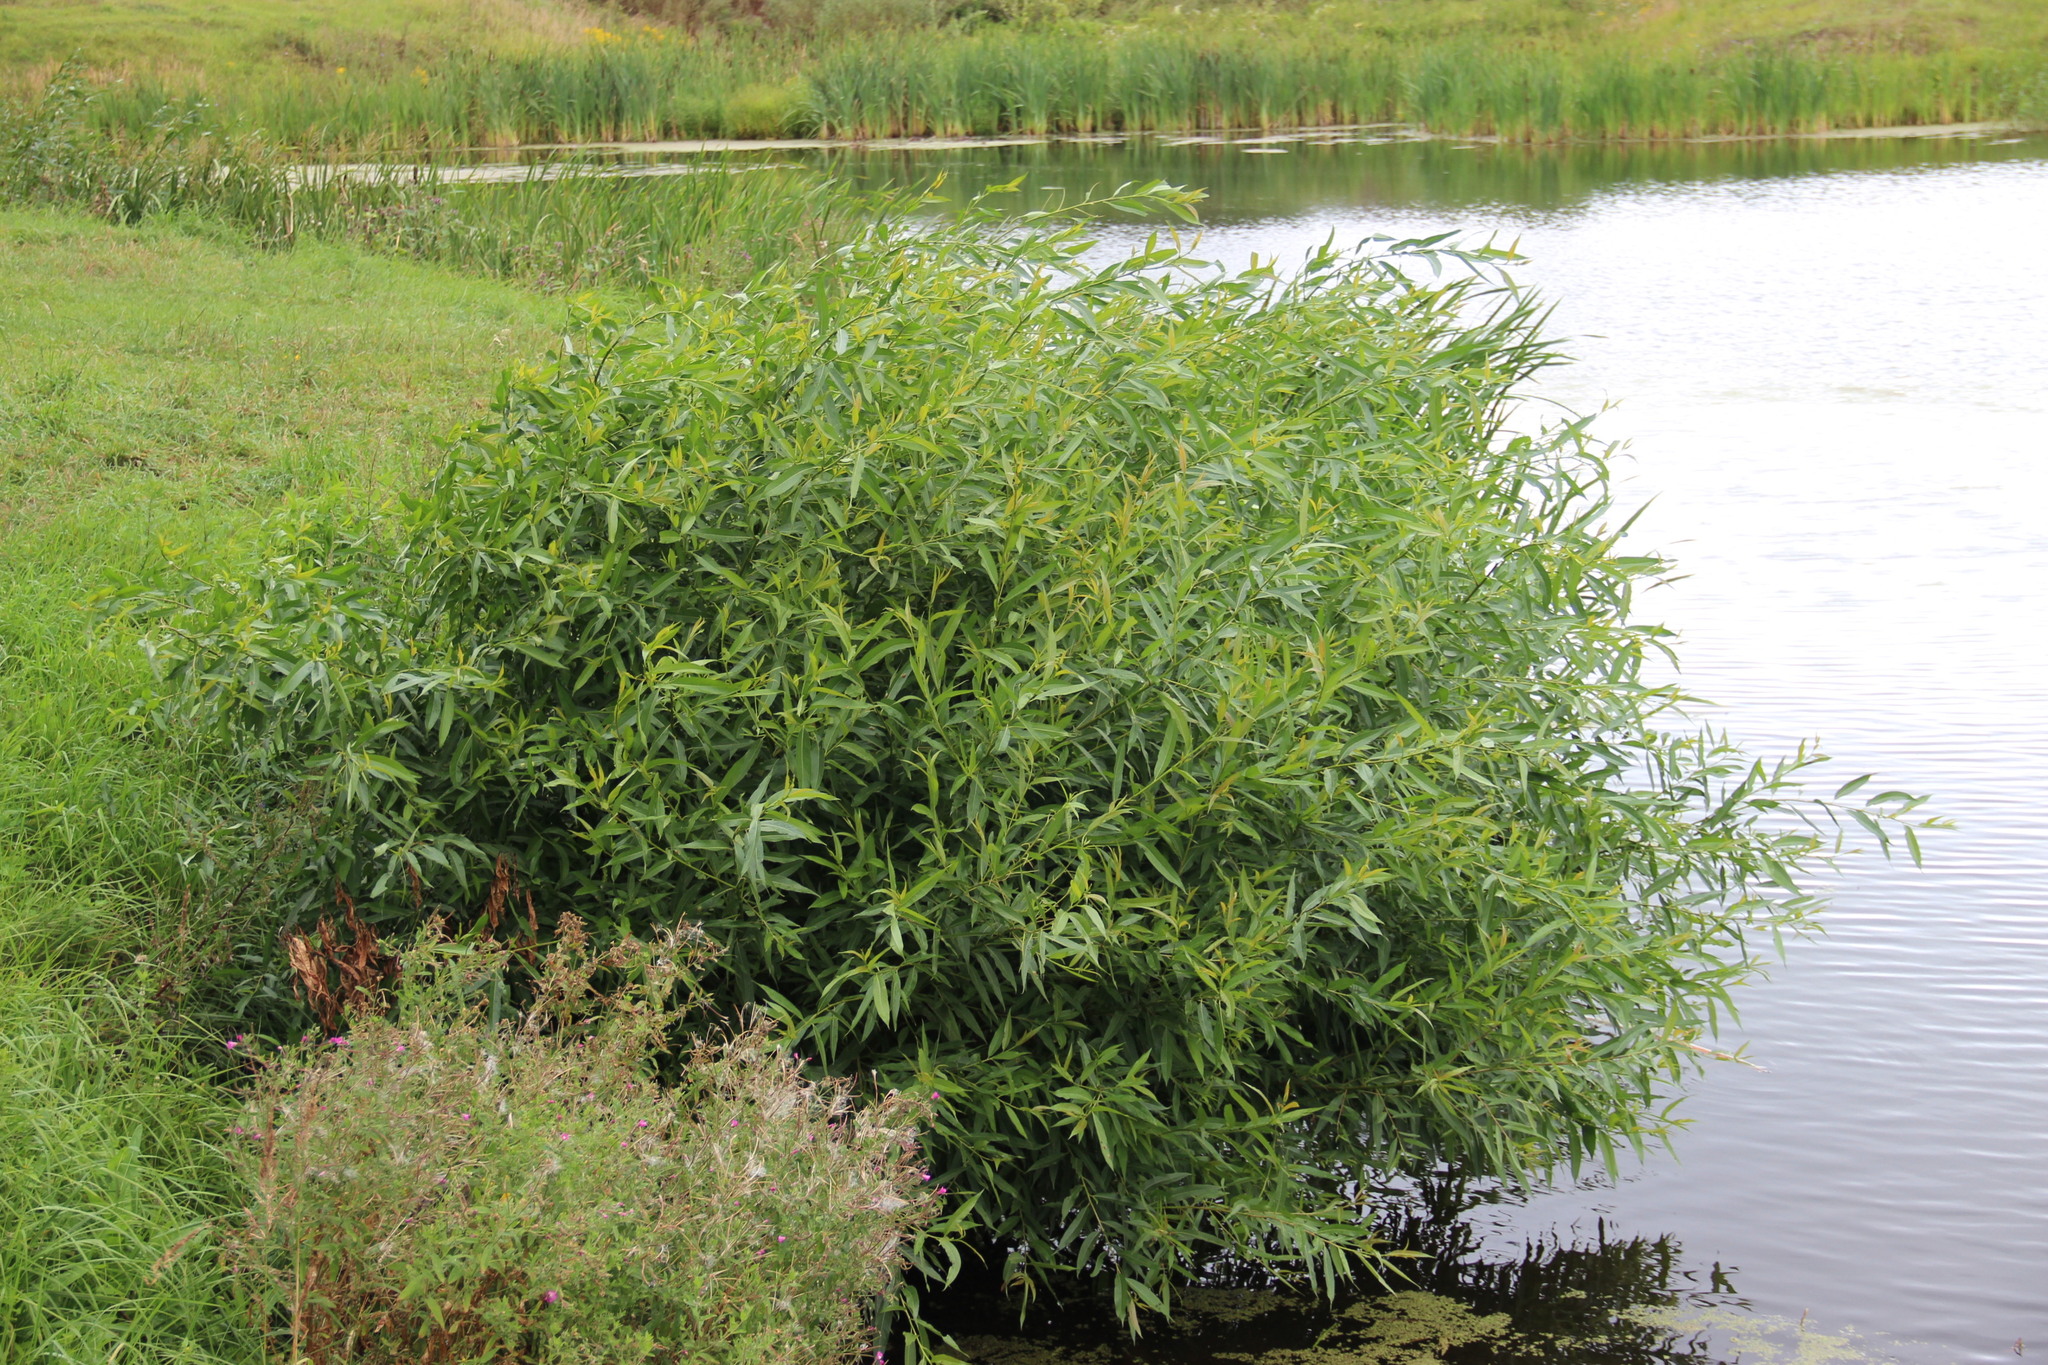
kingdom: Plantae
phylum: Tracheophyta
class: Magnoliopsida
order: Malpighiales
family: Salicaceae
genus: Salix
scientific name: Salix triandra
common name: Almond willow
